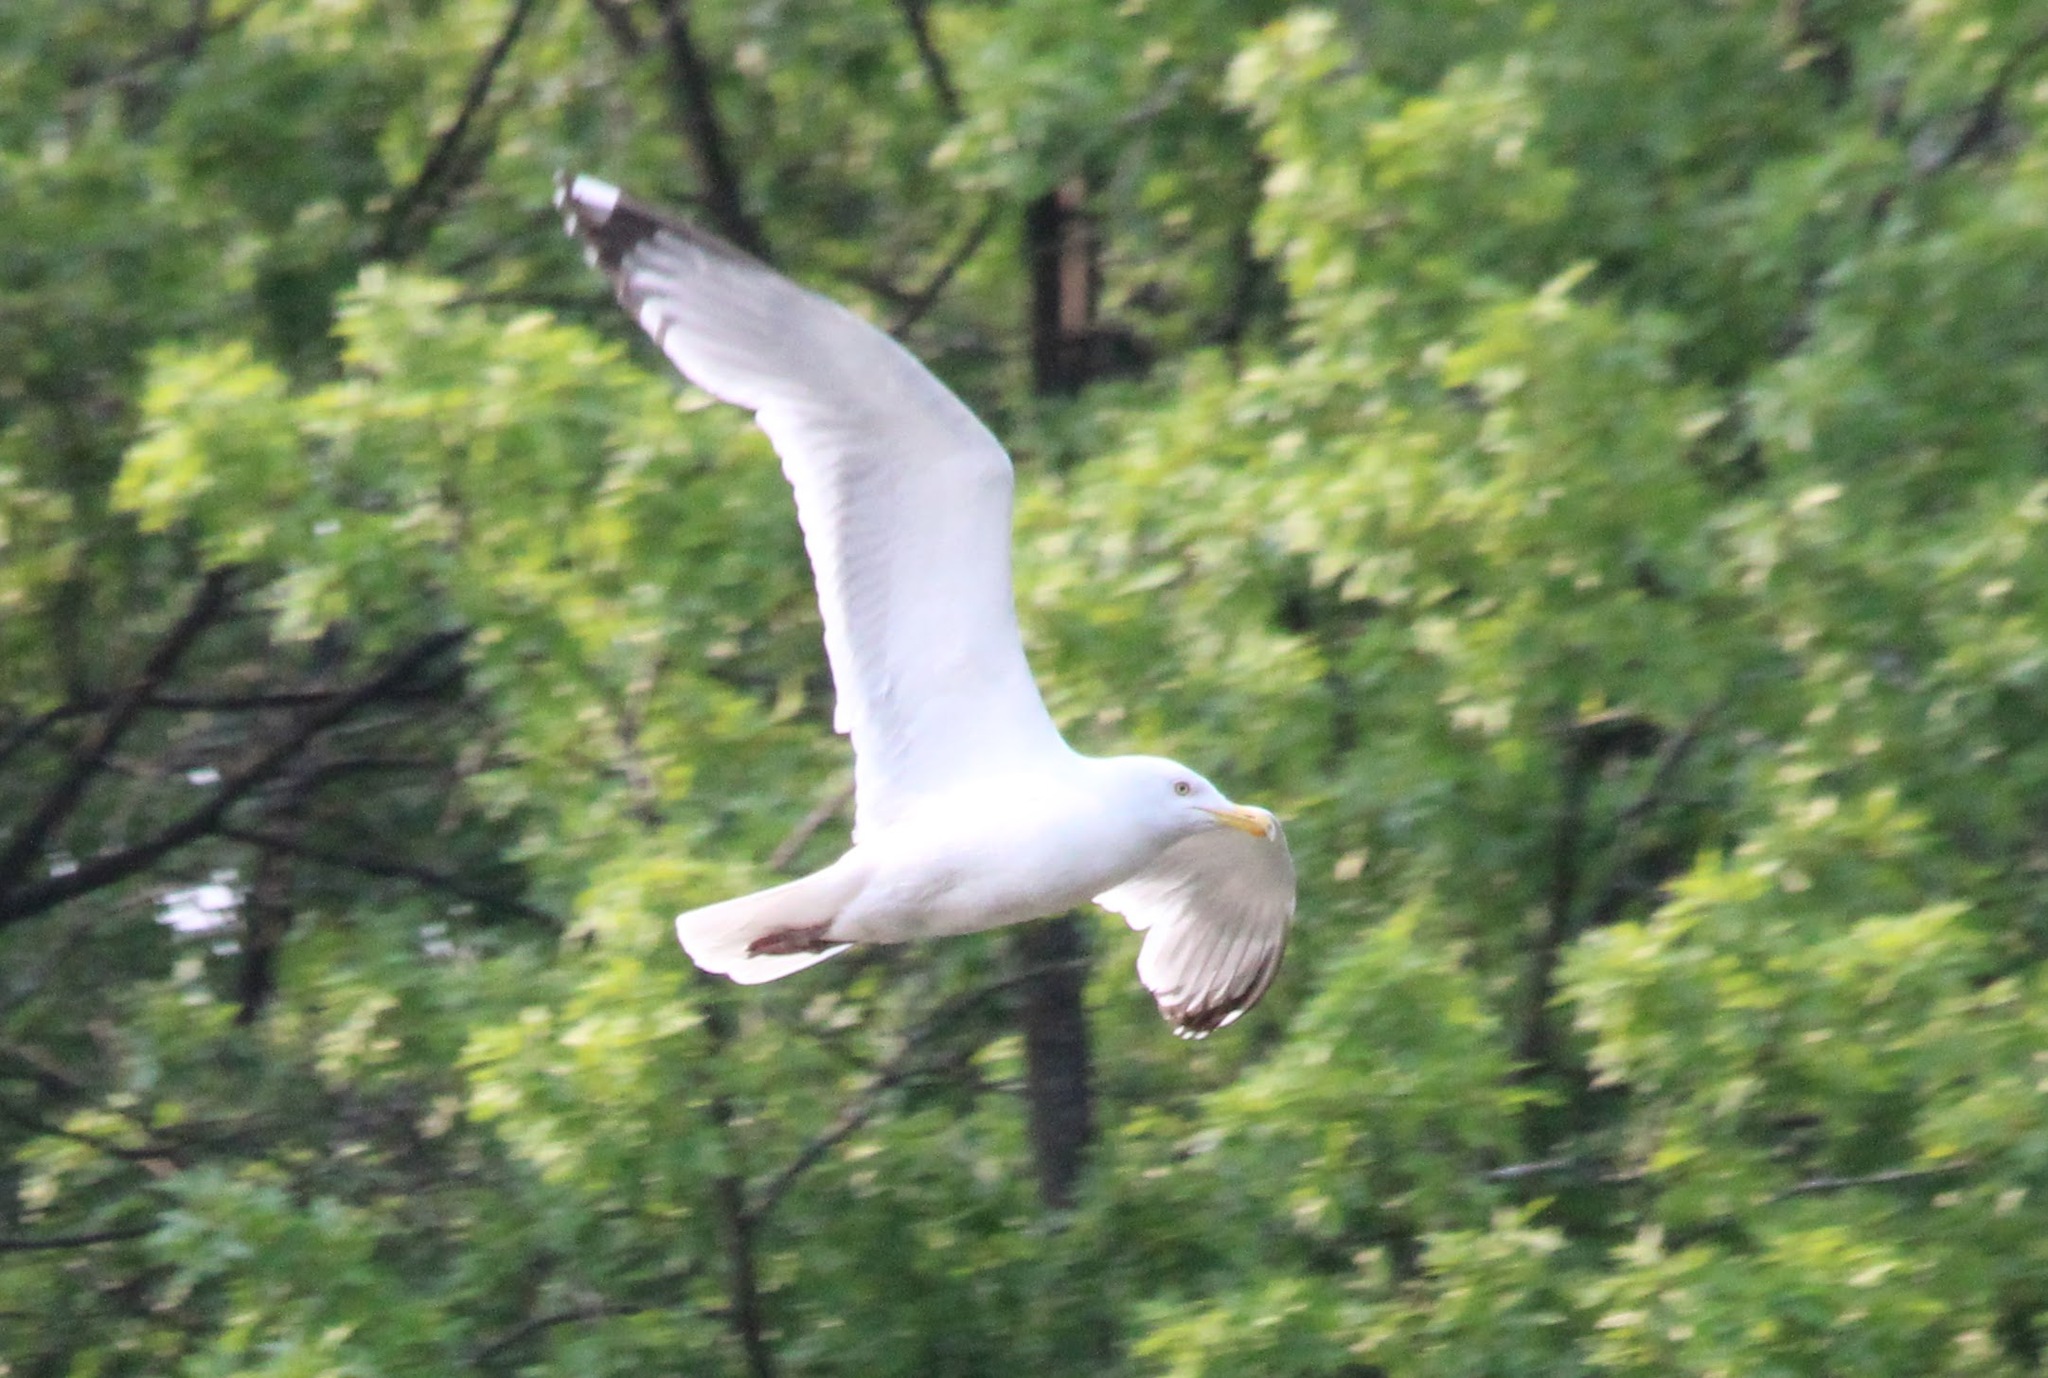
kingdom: Animalia
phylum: Chordata
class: Aves
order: Charadriiformes
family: Laridae
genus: Larus
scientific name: Larus argentatus
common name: Herring gull
